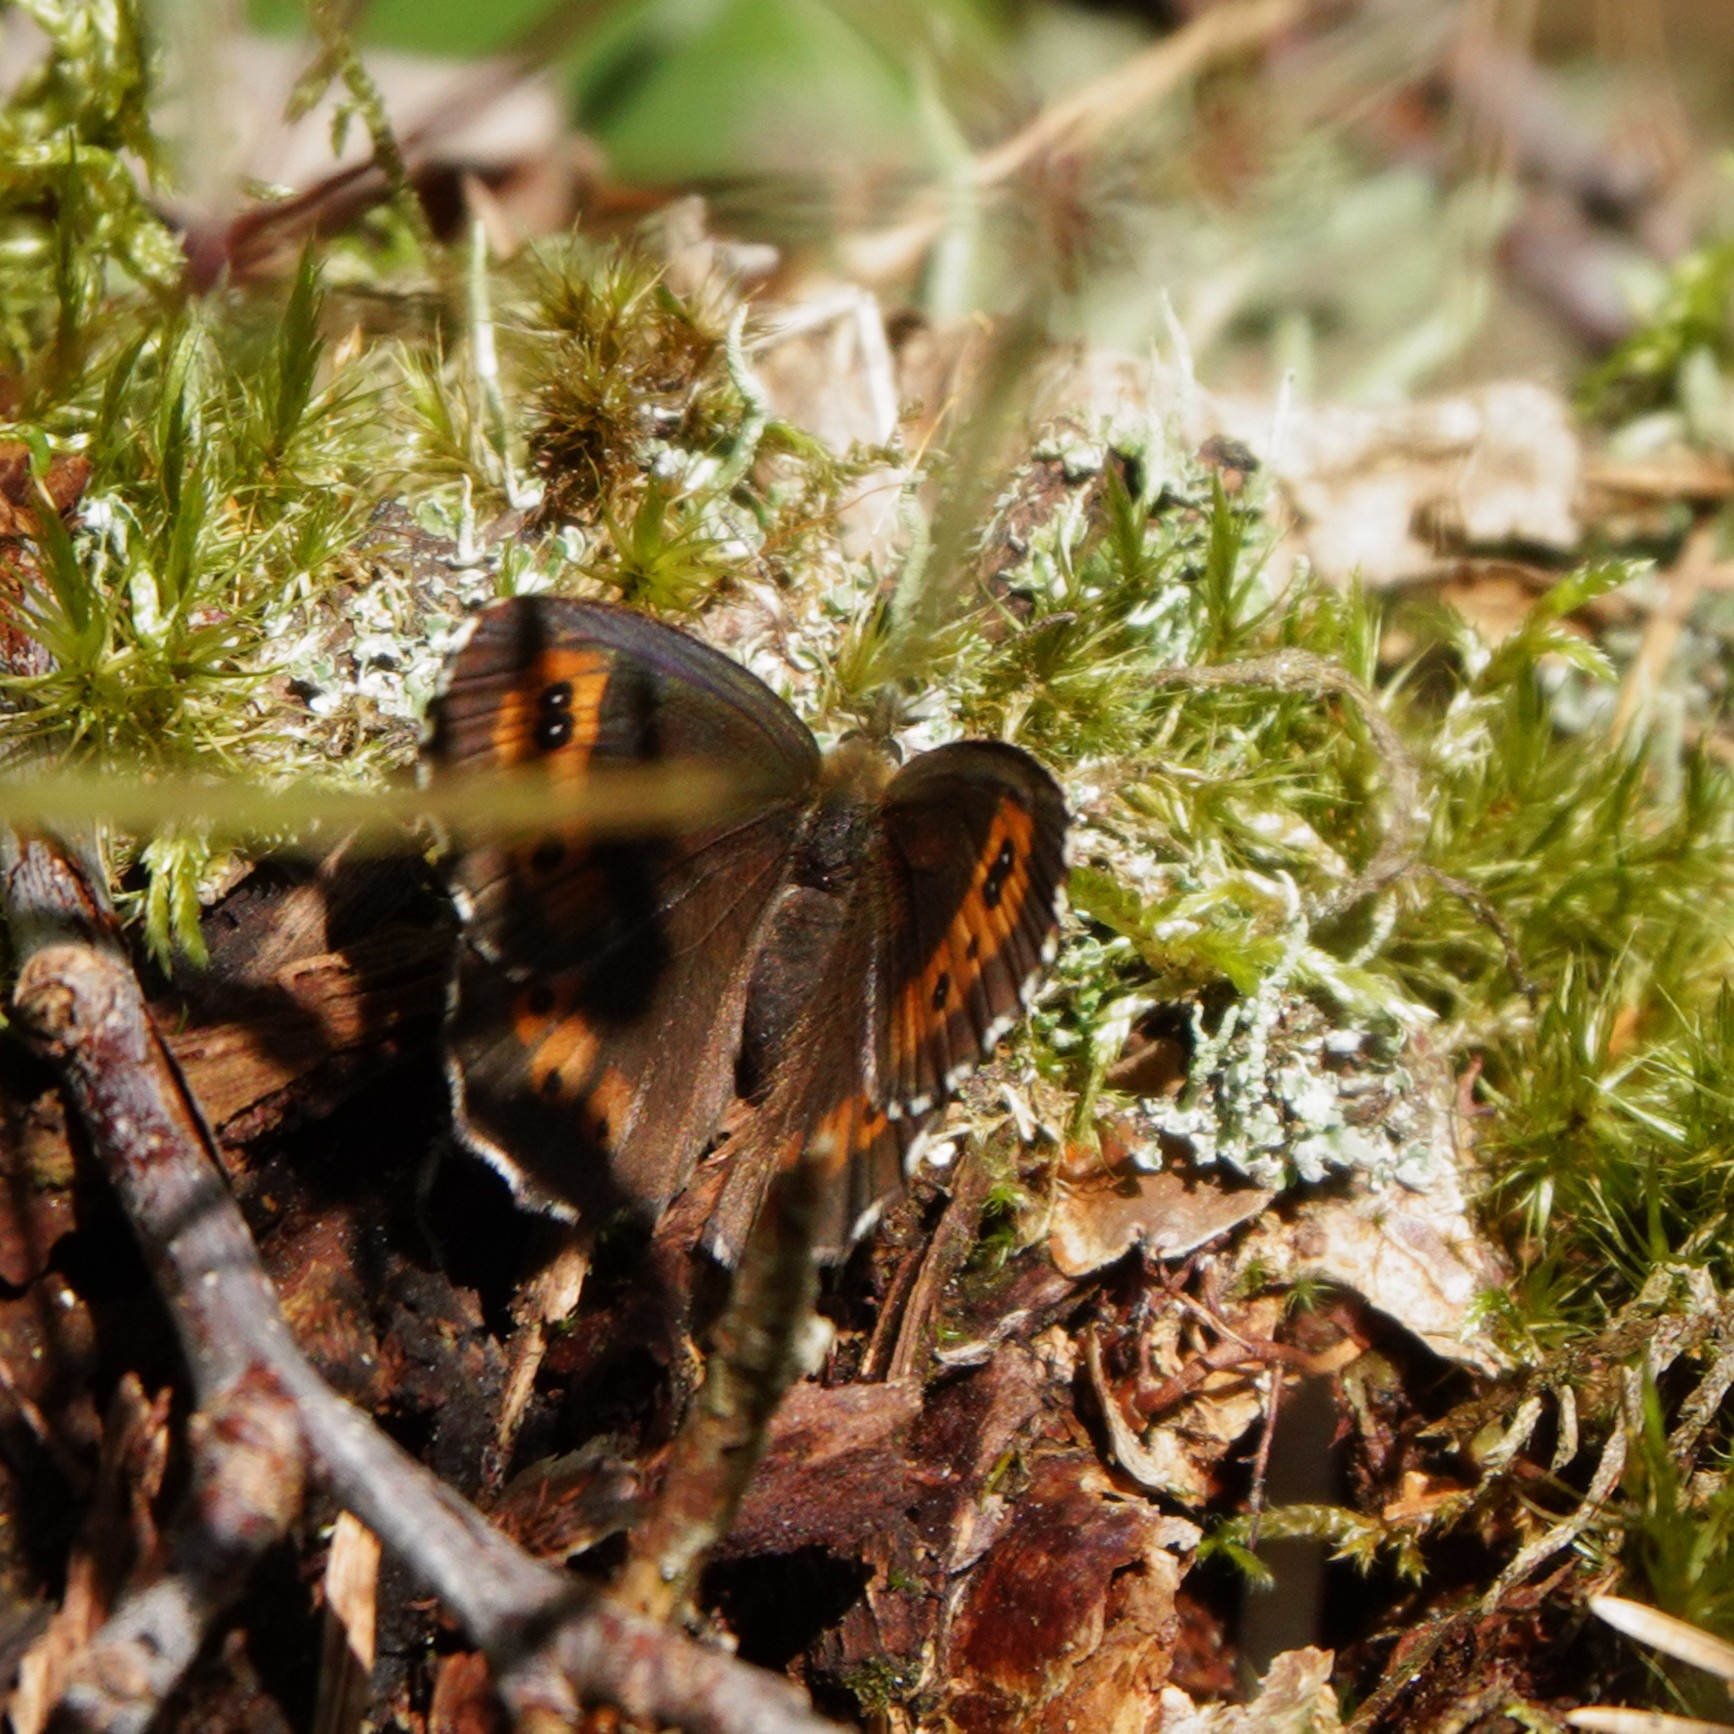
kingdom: Animalia
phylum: Arthropoda
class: Insecta
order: Lepidoptera
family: Nymphalidae
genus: Erebia
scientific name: Erebia ligea
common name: Arran brown
